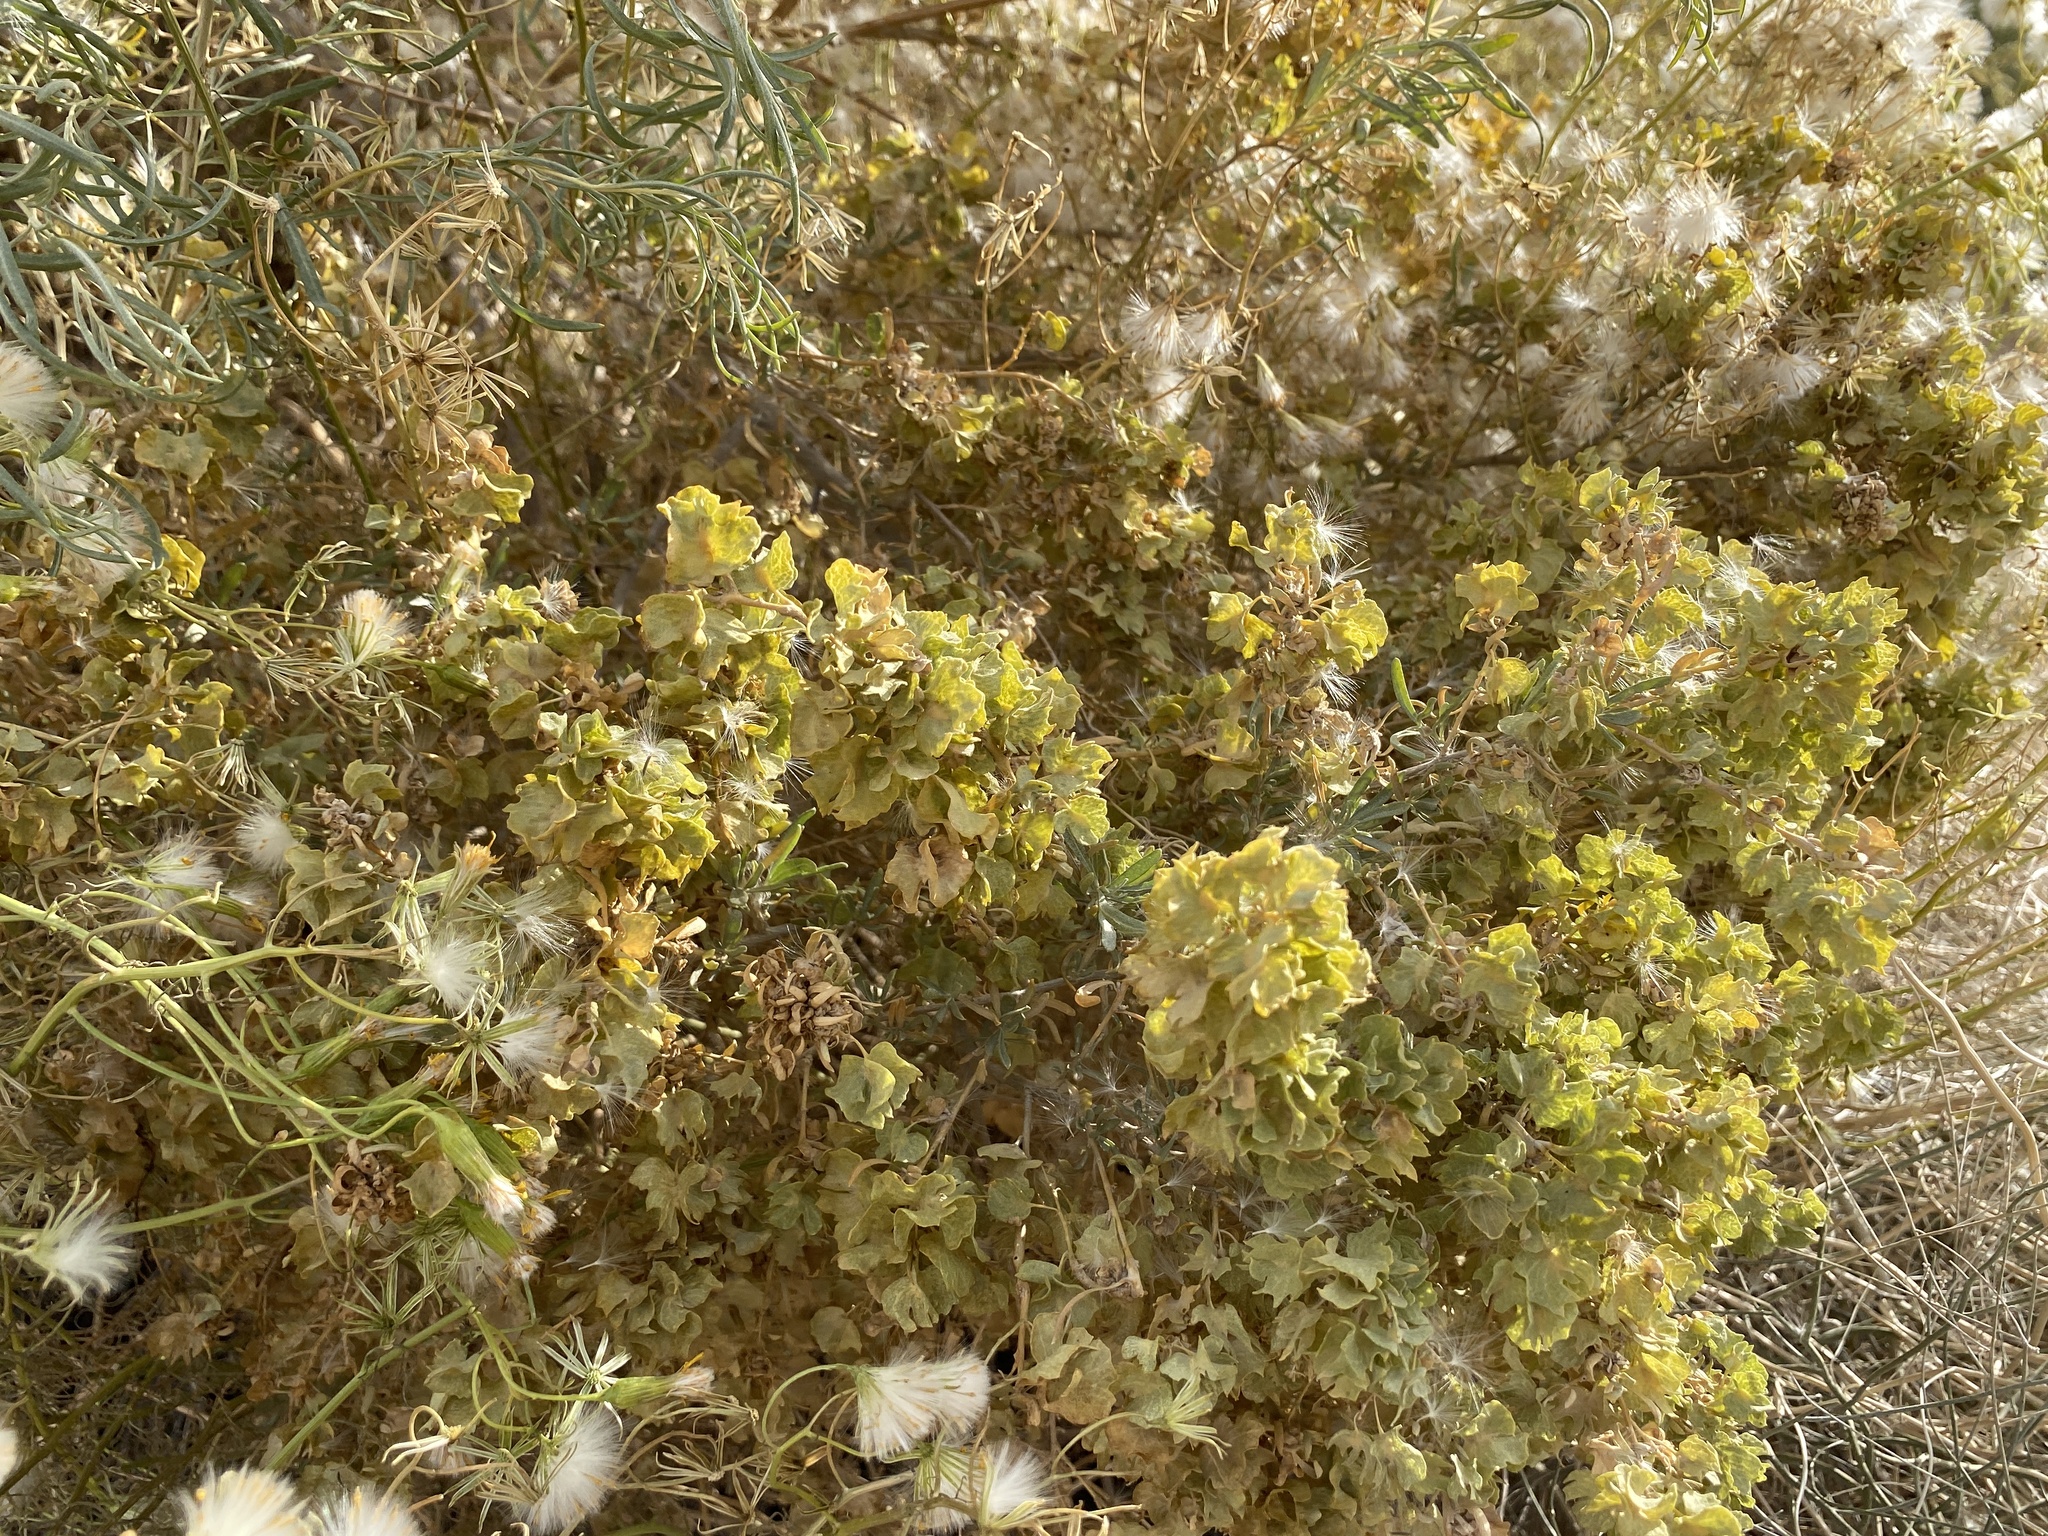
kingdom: Plantae
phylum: Tracheophyta
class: Magnoliopsida
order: Caryophyllales
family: Amaranthaceae
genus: Atriplex
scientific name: Atriplex canescens
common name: Four-wing saltbush
